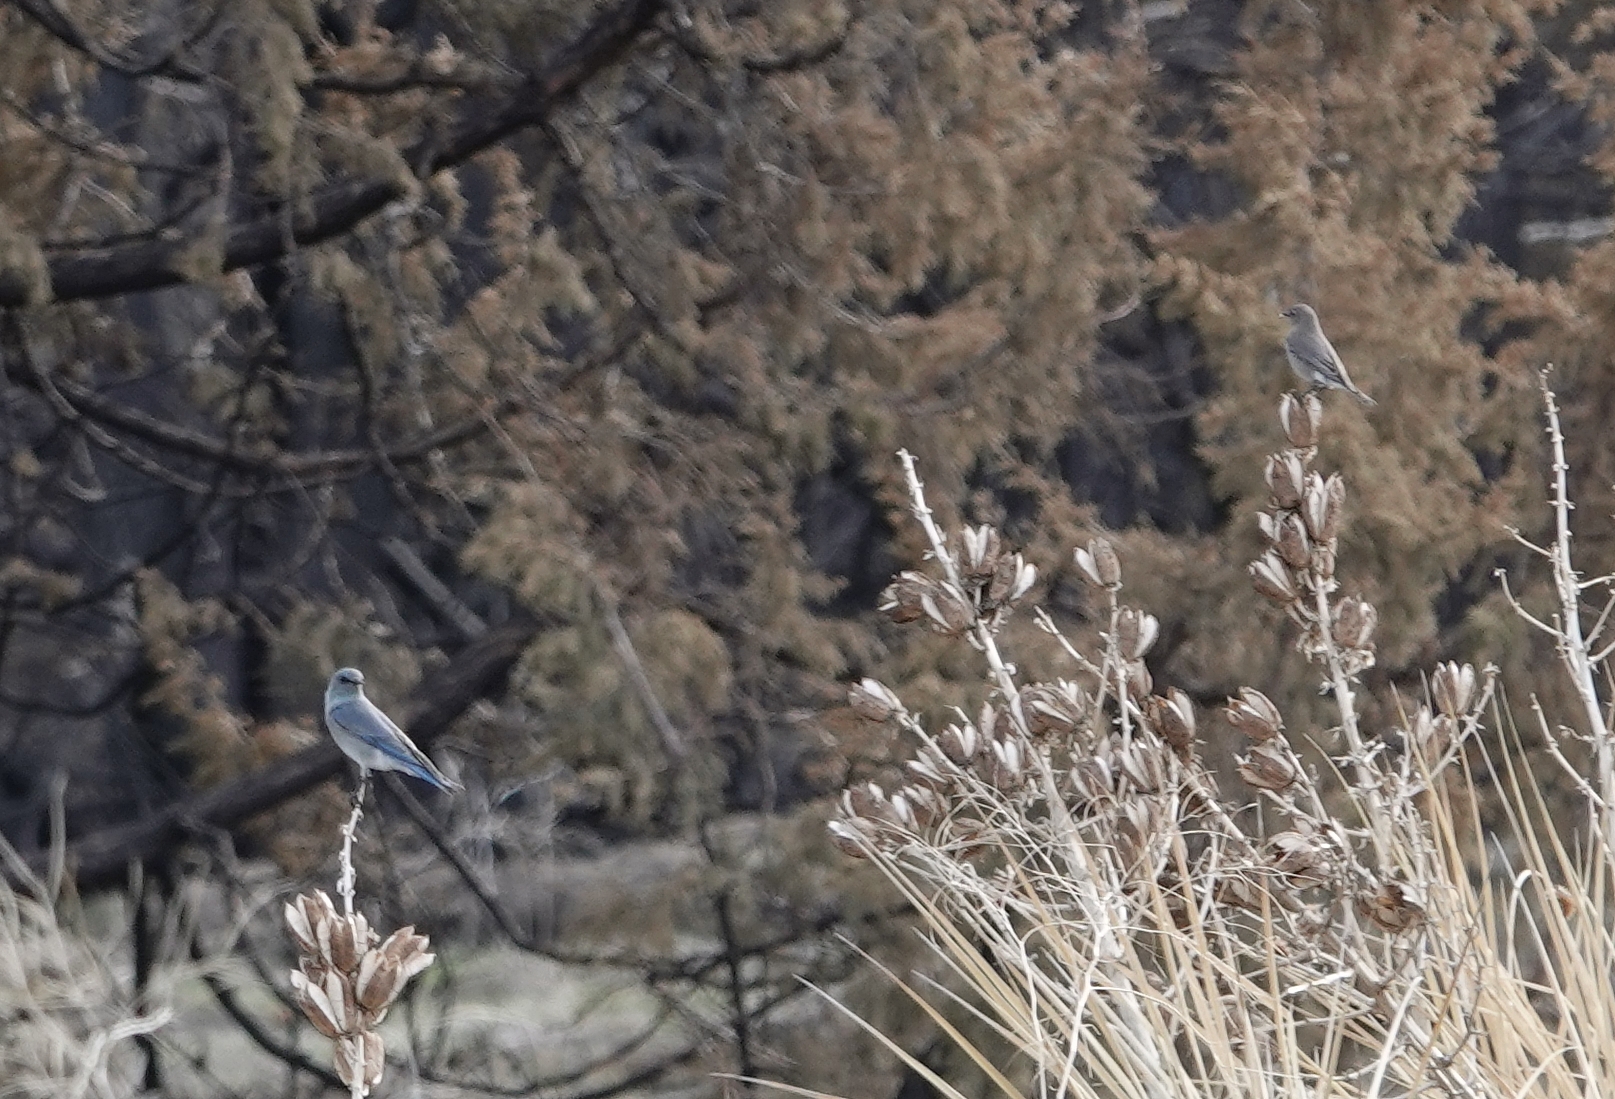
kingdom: Animalia
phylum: Chordata
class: Aves
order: Passeriformes
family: Turdidae
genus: Sialia
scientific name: Sialia currucoides
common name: Mountain bluebird
